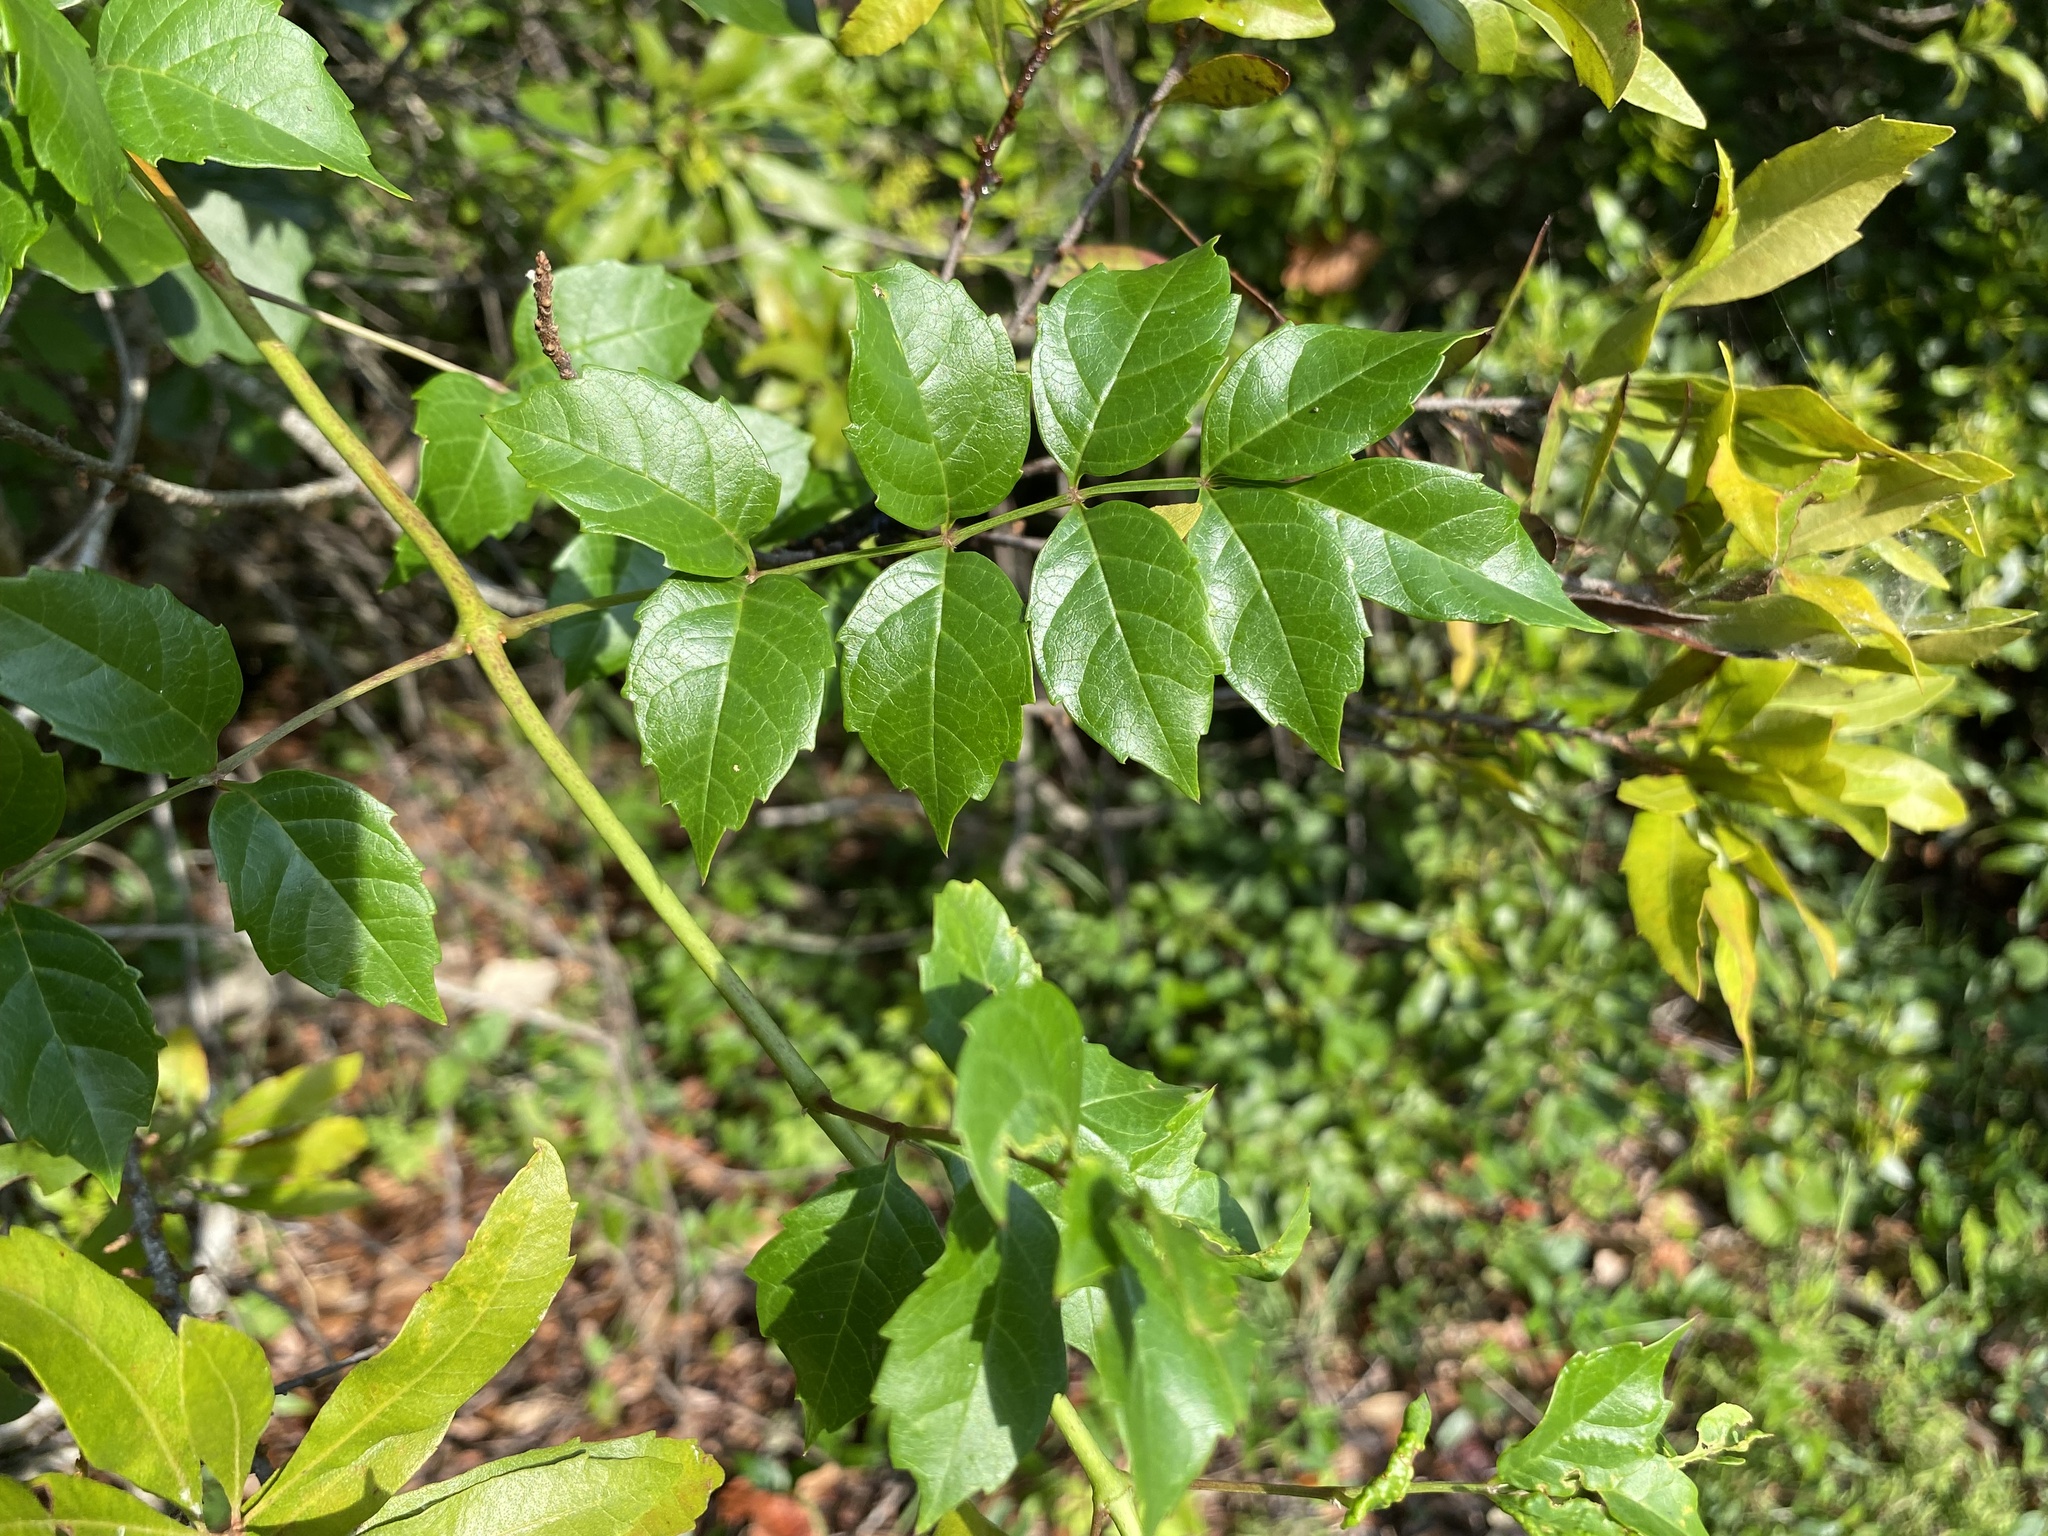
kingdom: Plantae
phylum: Tracheophyta
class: Magnoliopsida
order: Lamiales
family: Bignoniaceae
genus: Campsis
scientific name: Campsis radicans
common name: Trumpet-creeper
